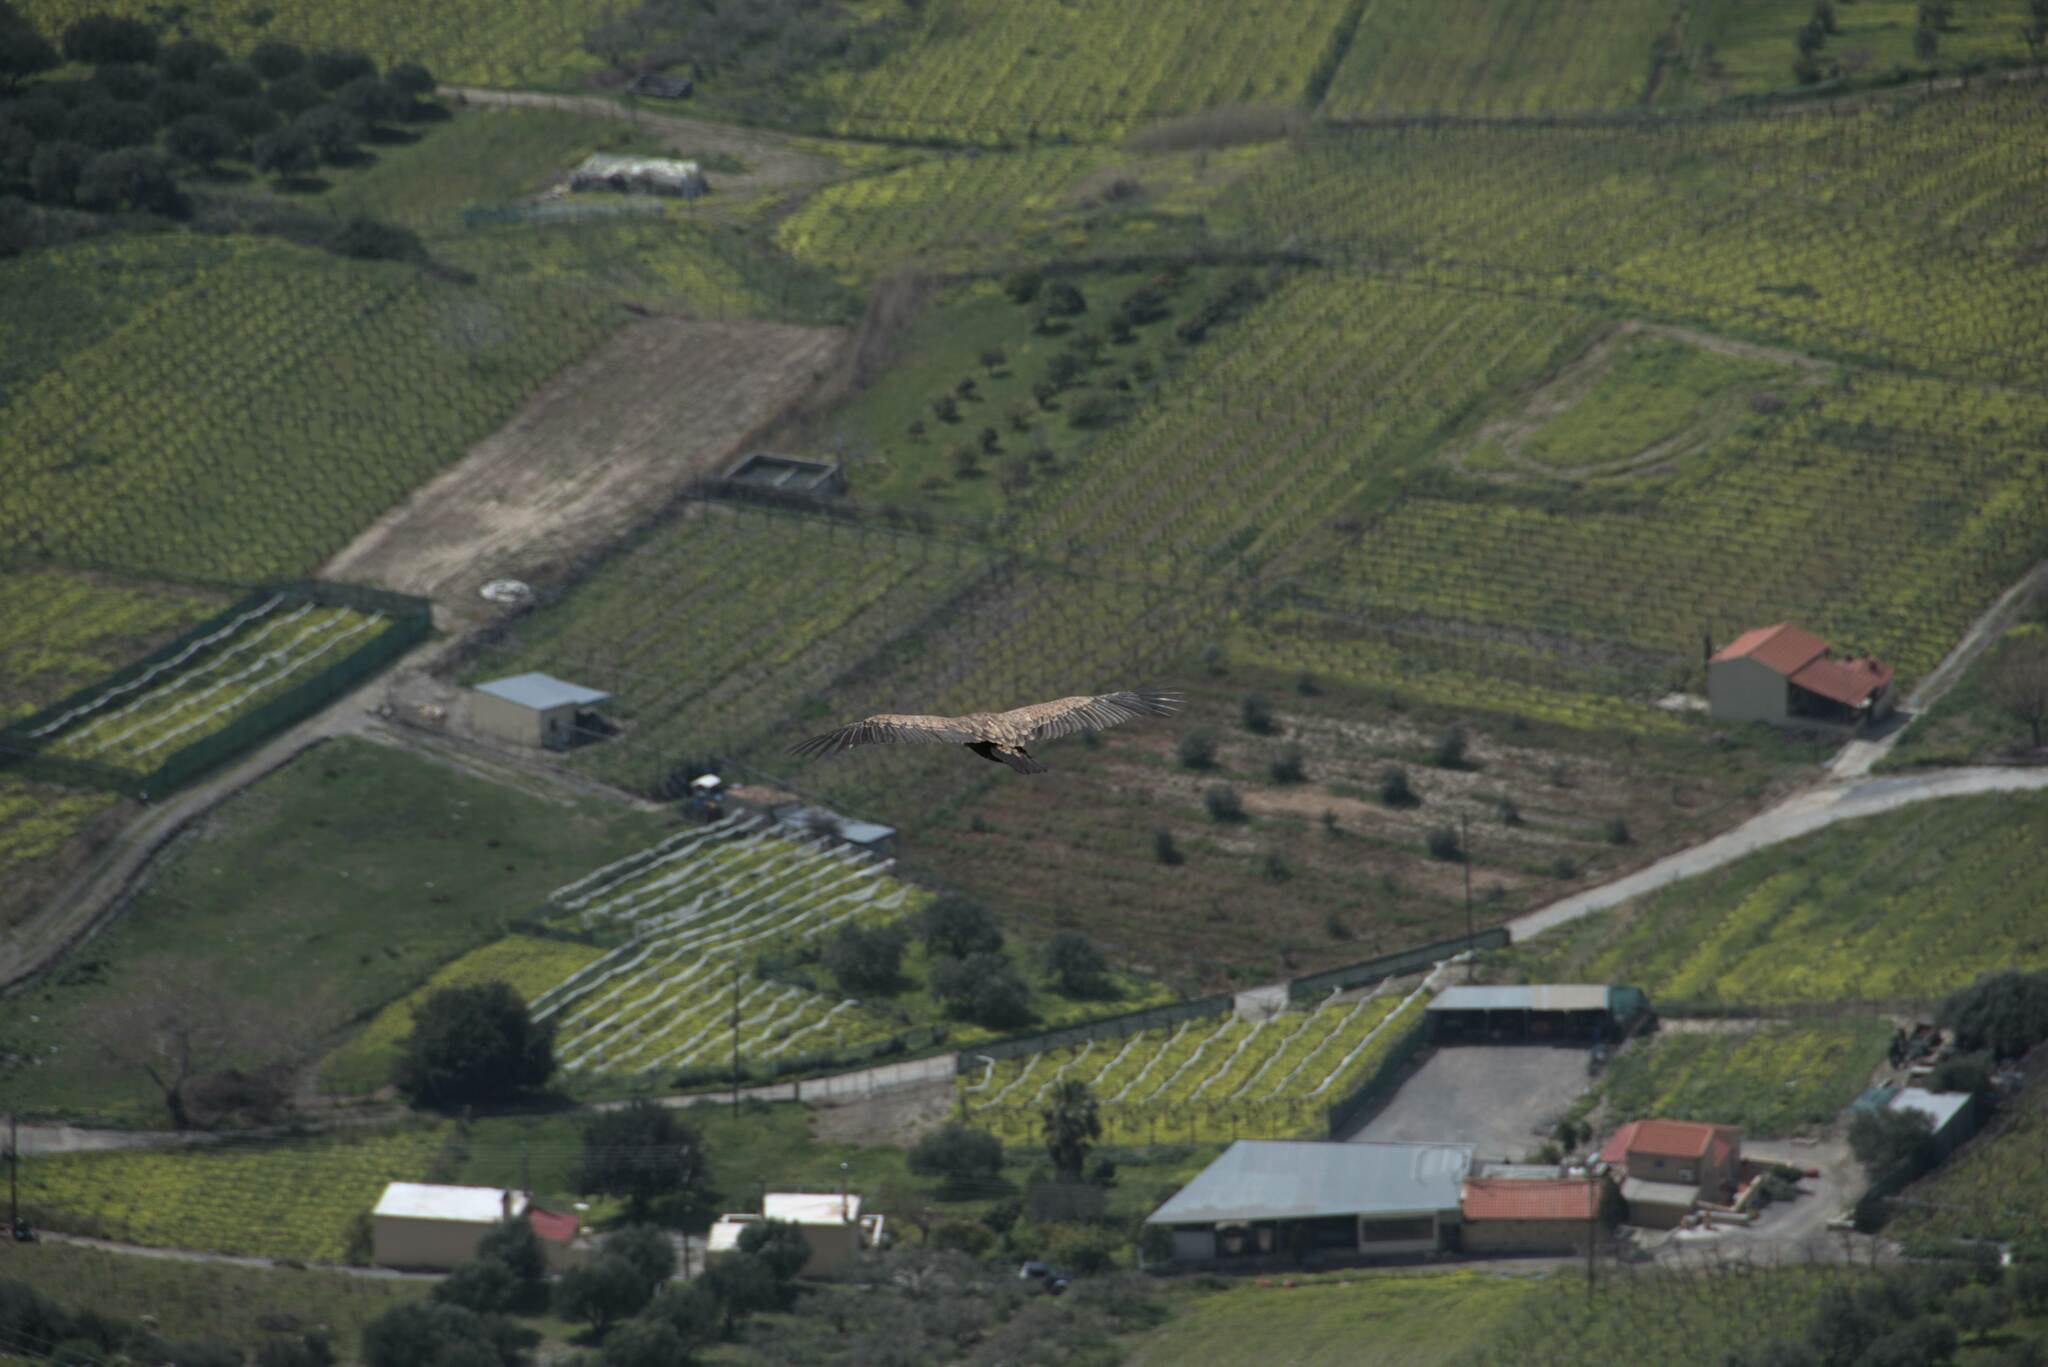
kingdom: Animalia
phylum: Chordata
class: Aves
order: Accipitriformes
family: Accipitridae
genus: Gyps
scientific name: Gyps fulvus
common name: Griffon vulture
